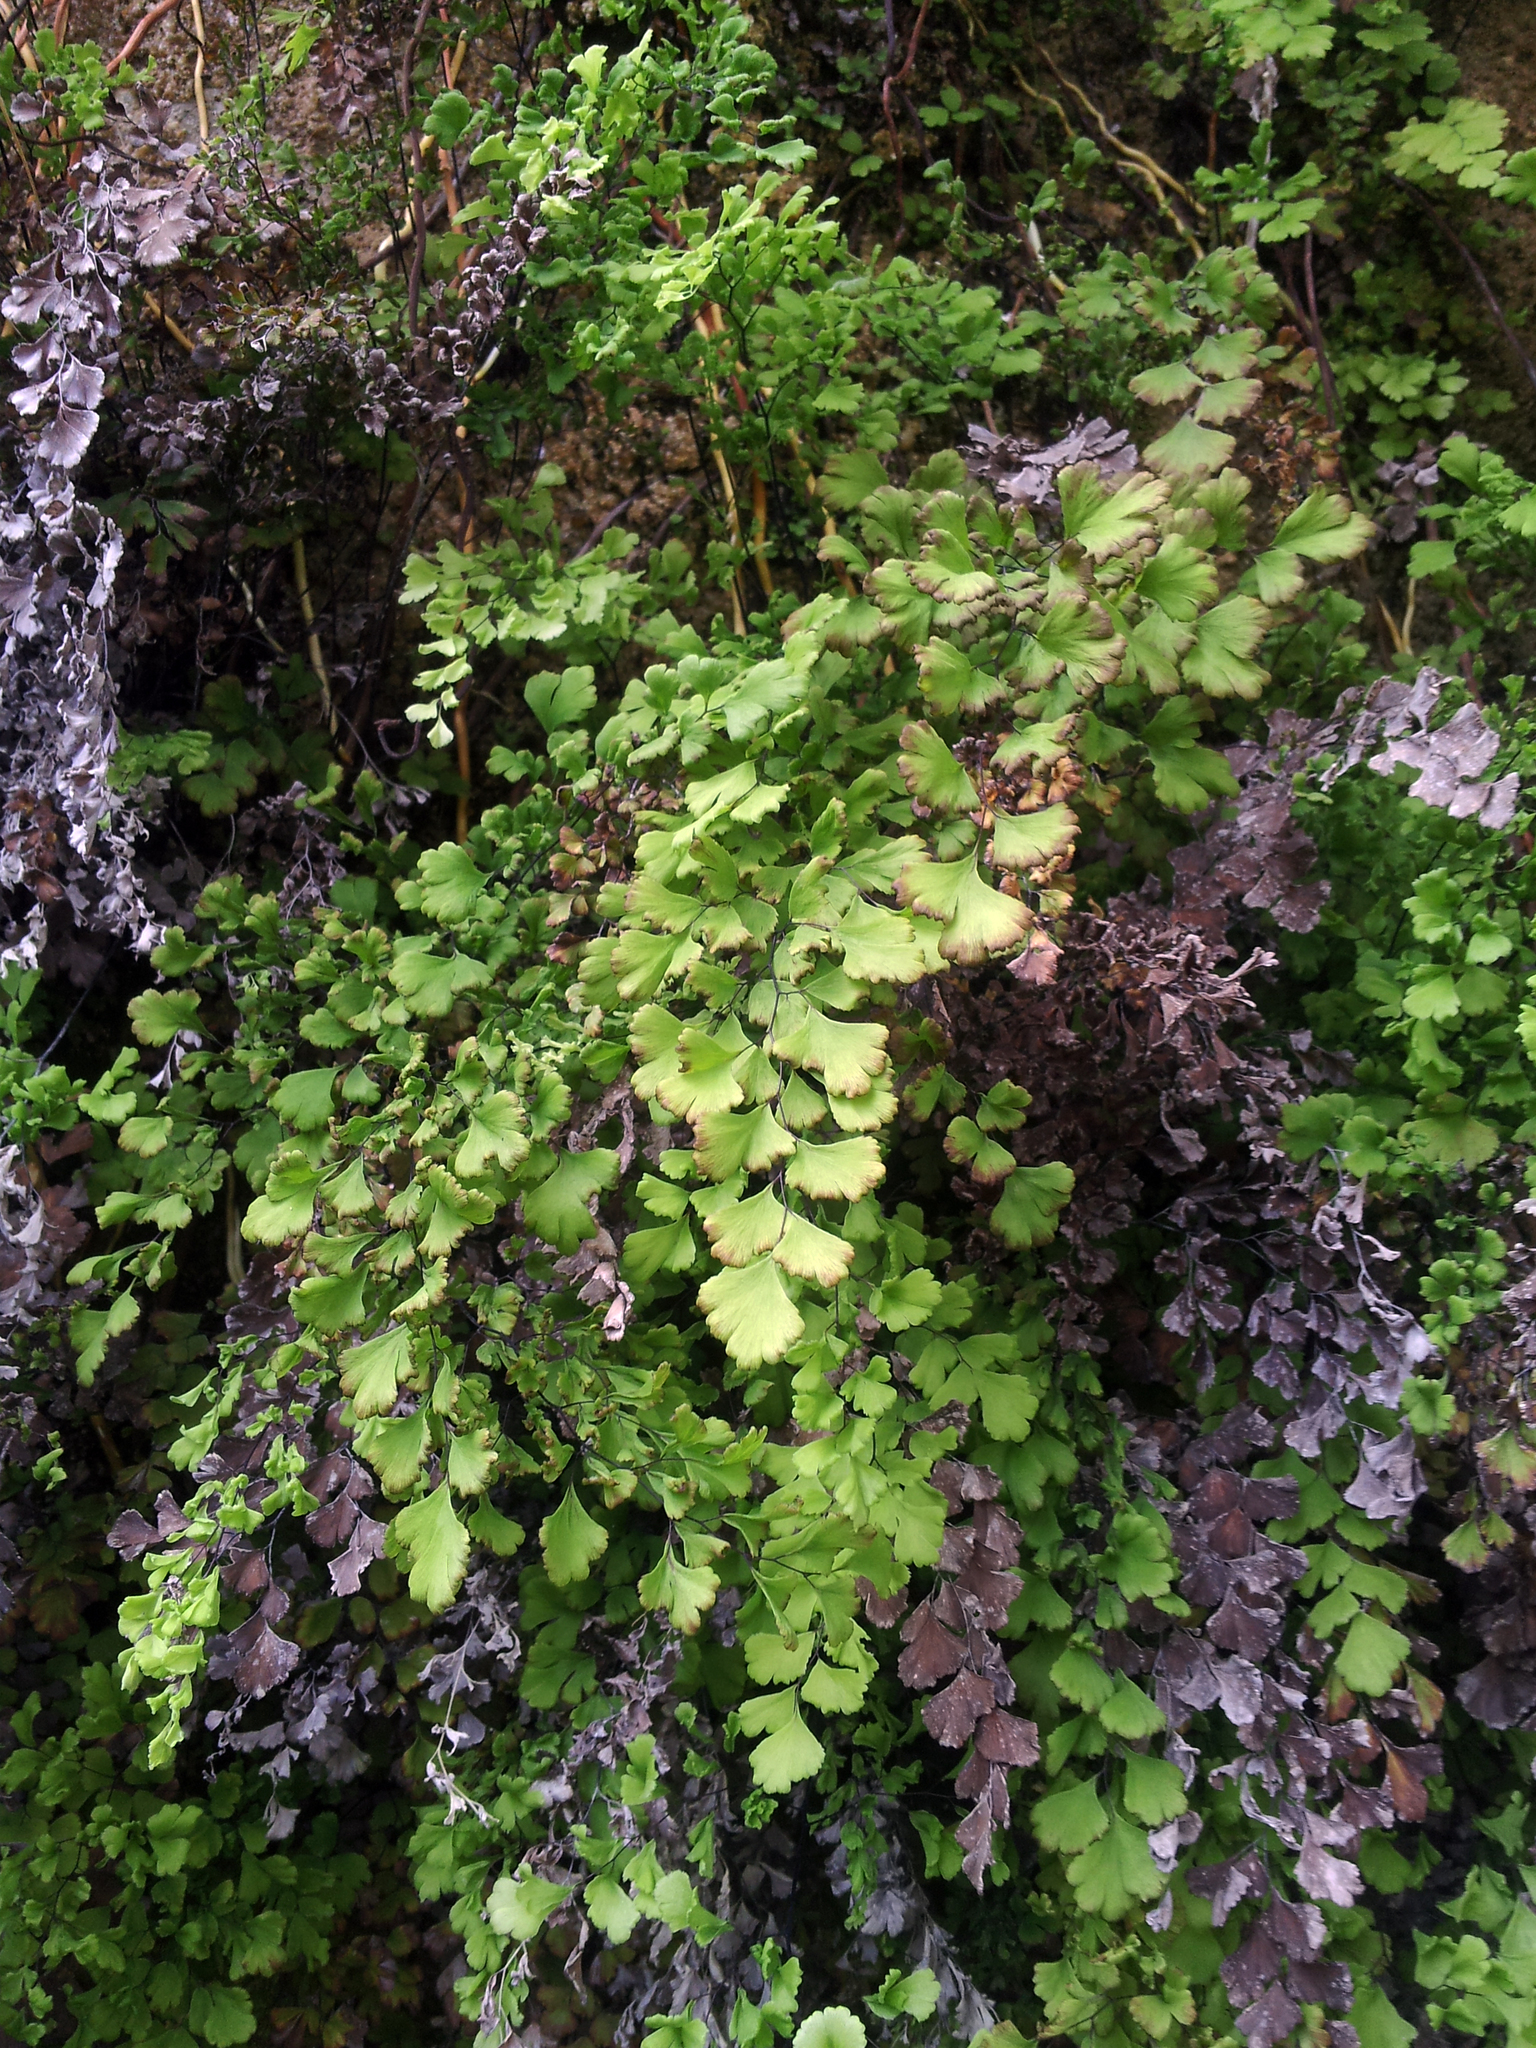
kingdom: Plantae
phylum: Tracheophyta
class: Polypodiopsida
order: Polypodiales
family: Pteridaceae
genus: Adiantum
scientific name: Adiantum capillus-veneris
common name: Maidenhair fern
